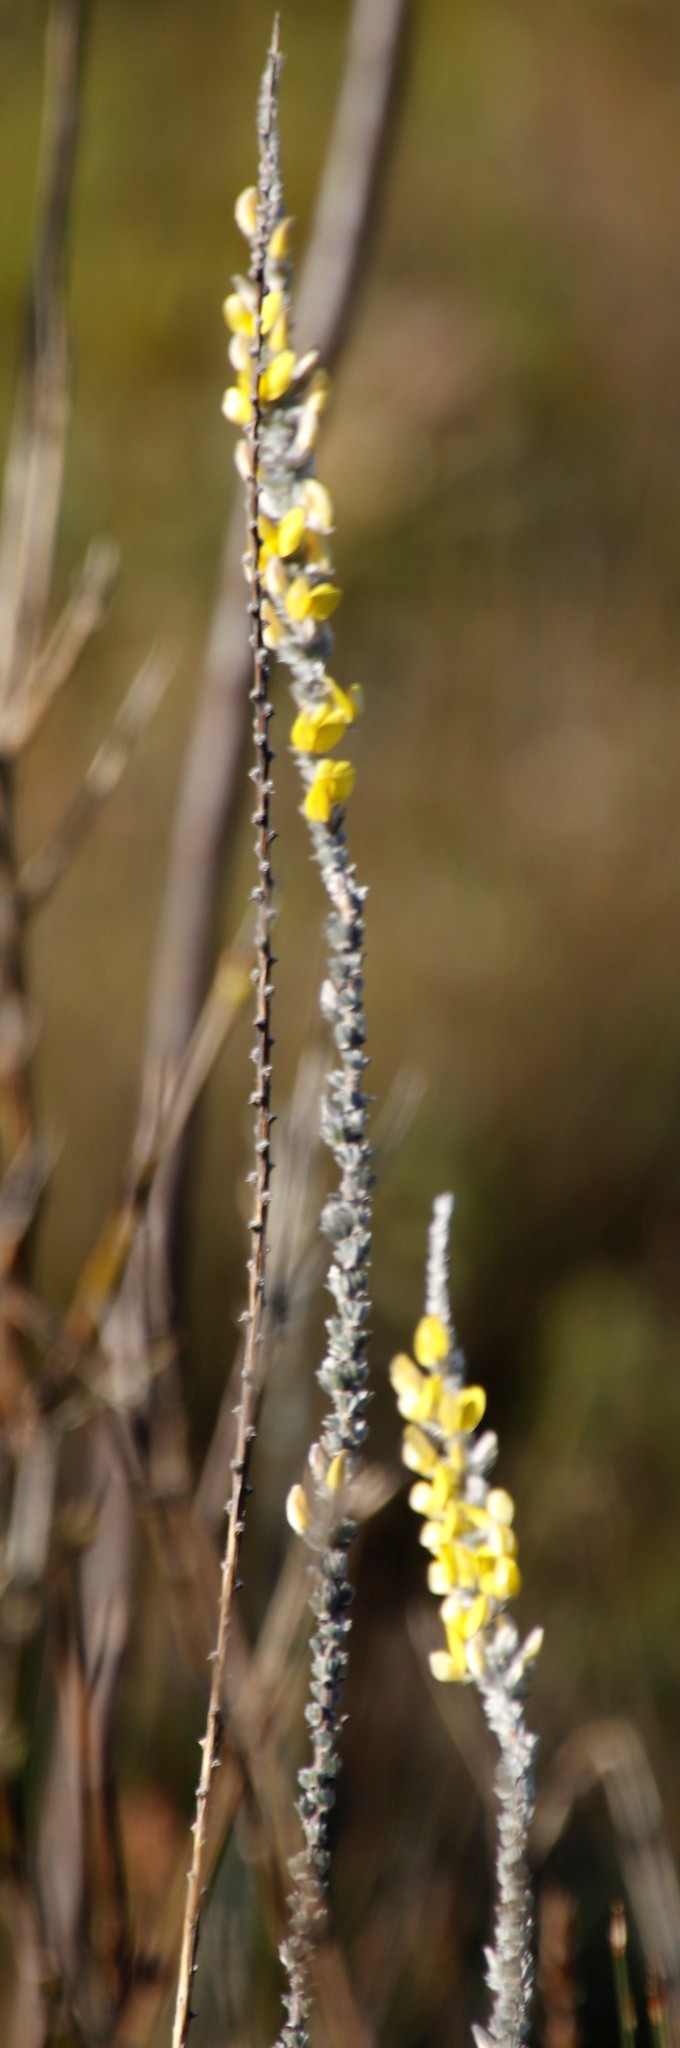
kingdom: Plantae
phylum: Tracheophyta
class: Magnoliopsida
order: Fabales
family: Fabaceae
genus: Aspalathus
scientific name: Aspalathus caledonensis
